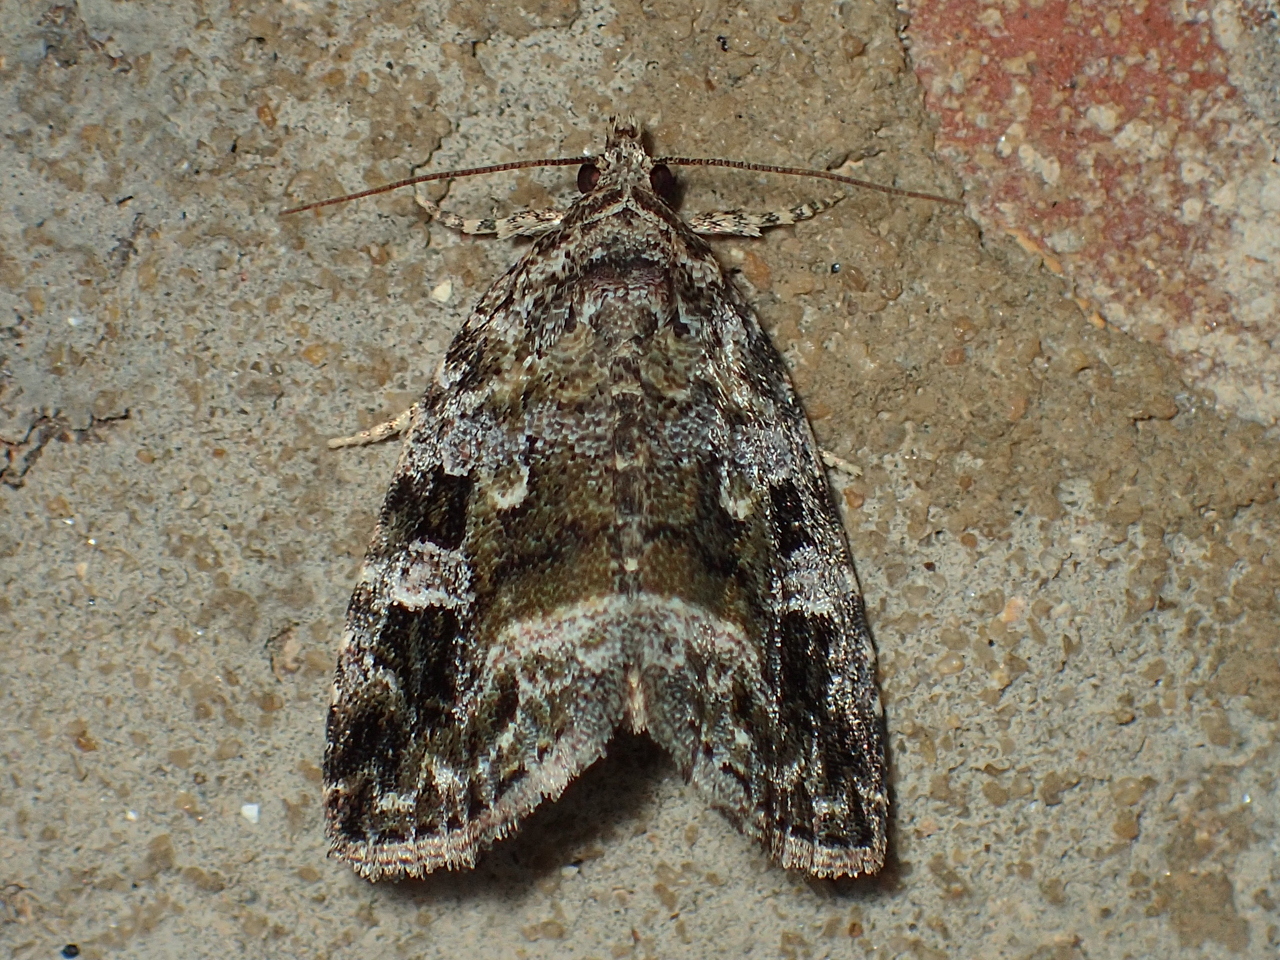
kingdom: Animalia
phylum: Arthropoda
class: Insecta
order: Lepidoptera
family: Noctuidae
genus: Protodeltote
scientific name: Protodeltote muscosula
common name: Large mossy glyph
